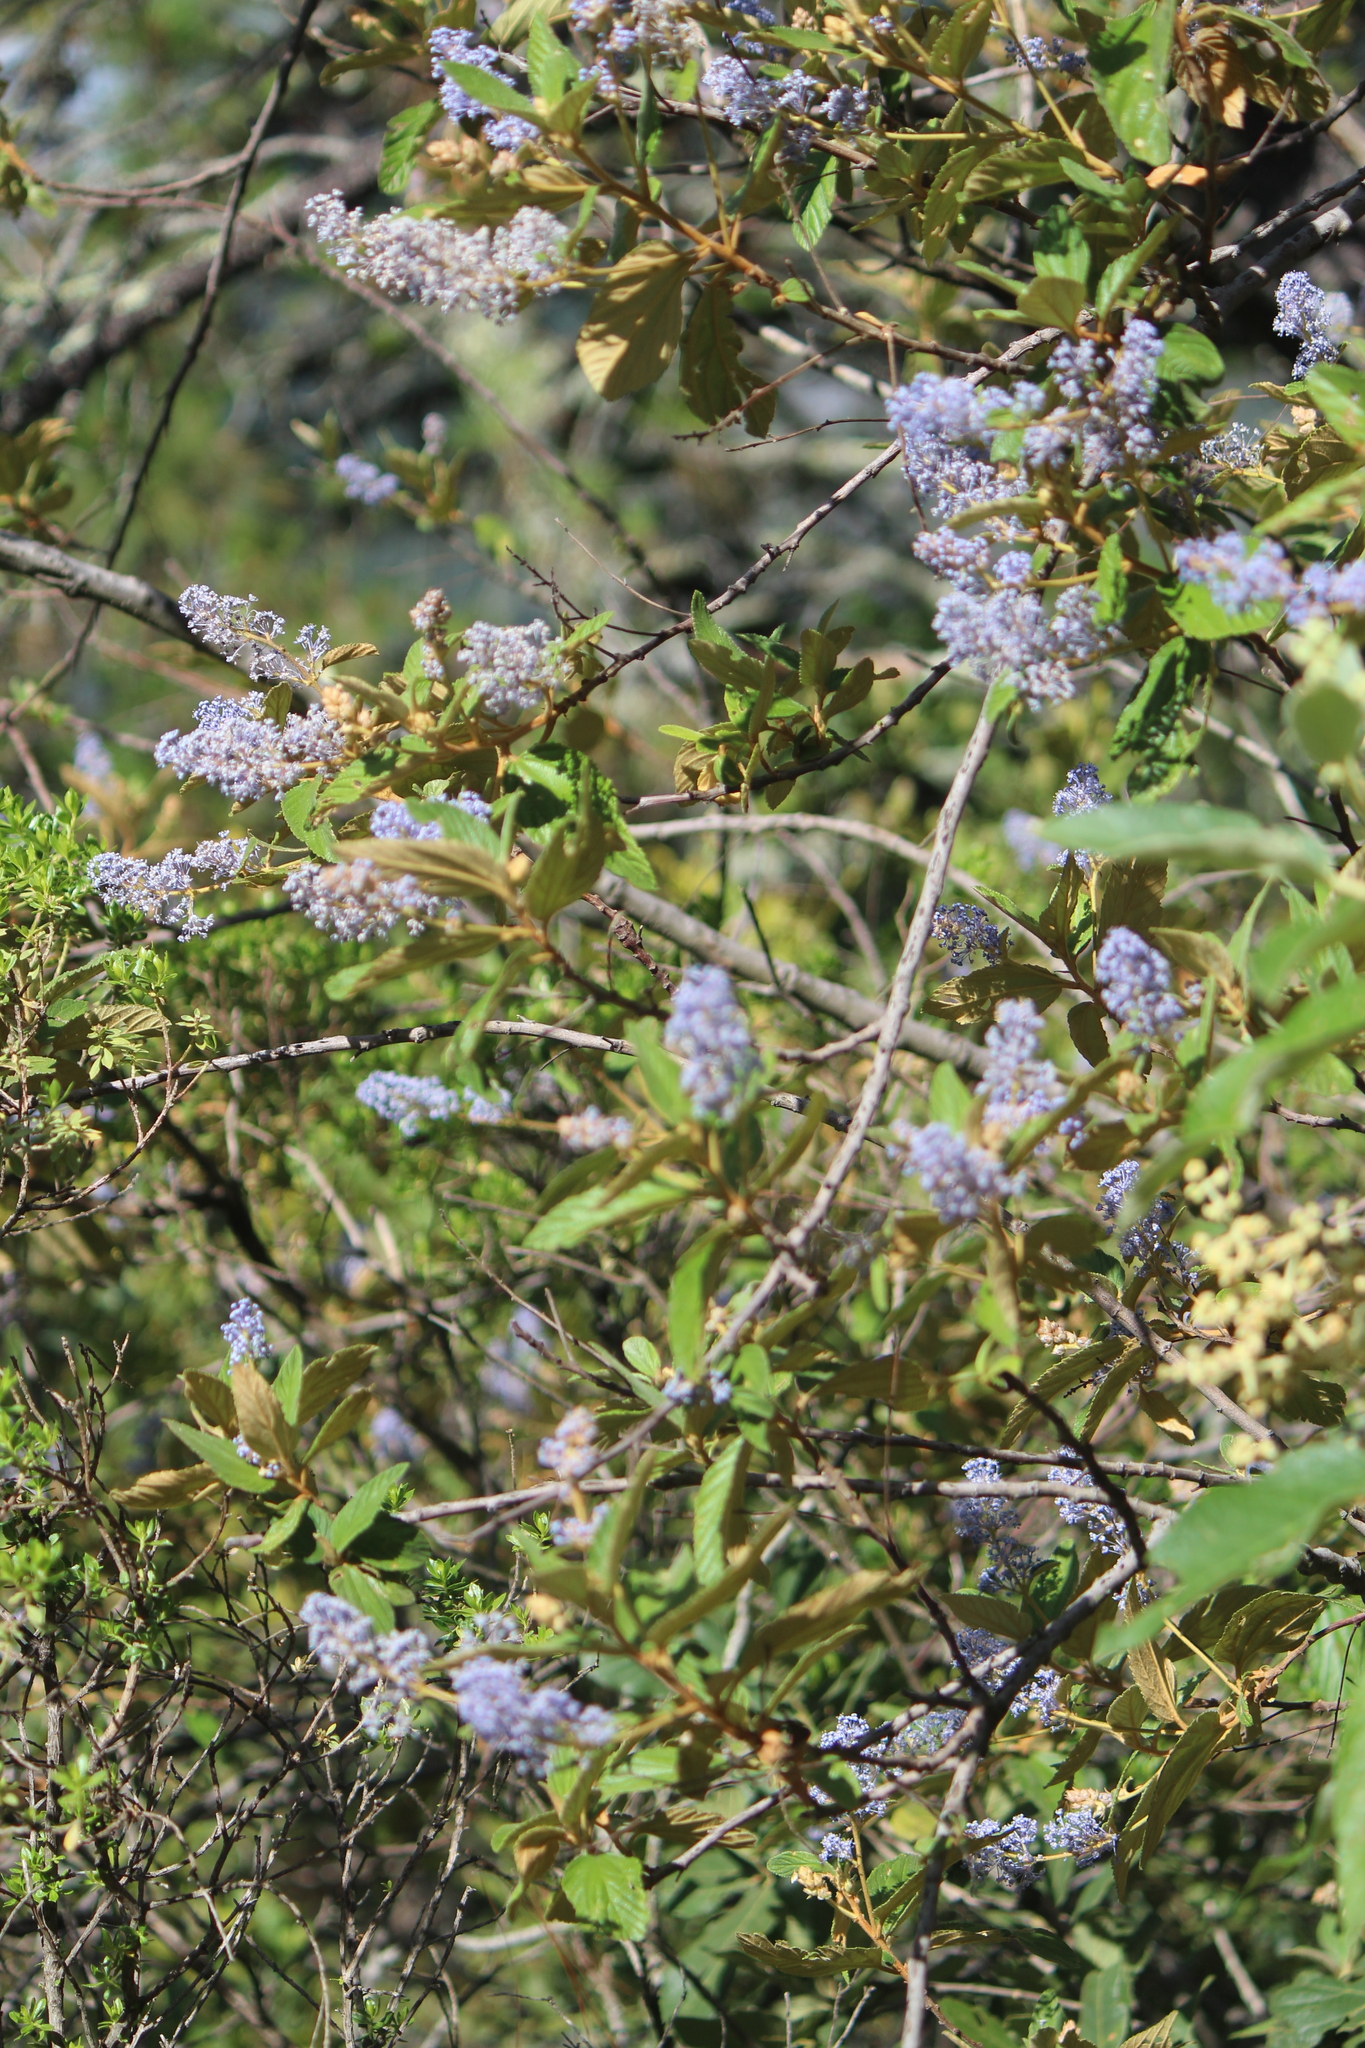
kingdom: Plantae
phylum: Tracheophyta
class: Magnoliopsida
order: Rosales
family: Rhamnaceae
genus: Ceanothus
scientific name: Ceanothus caeruleus
